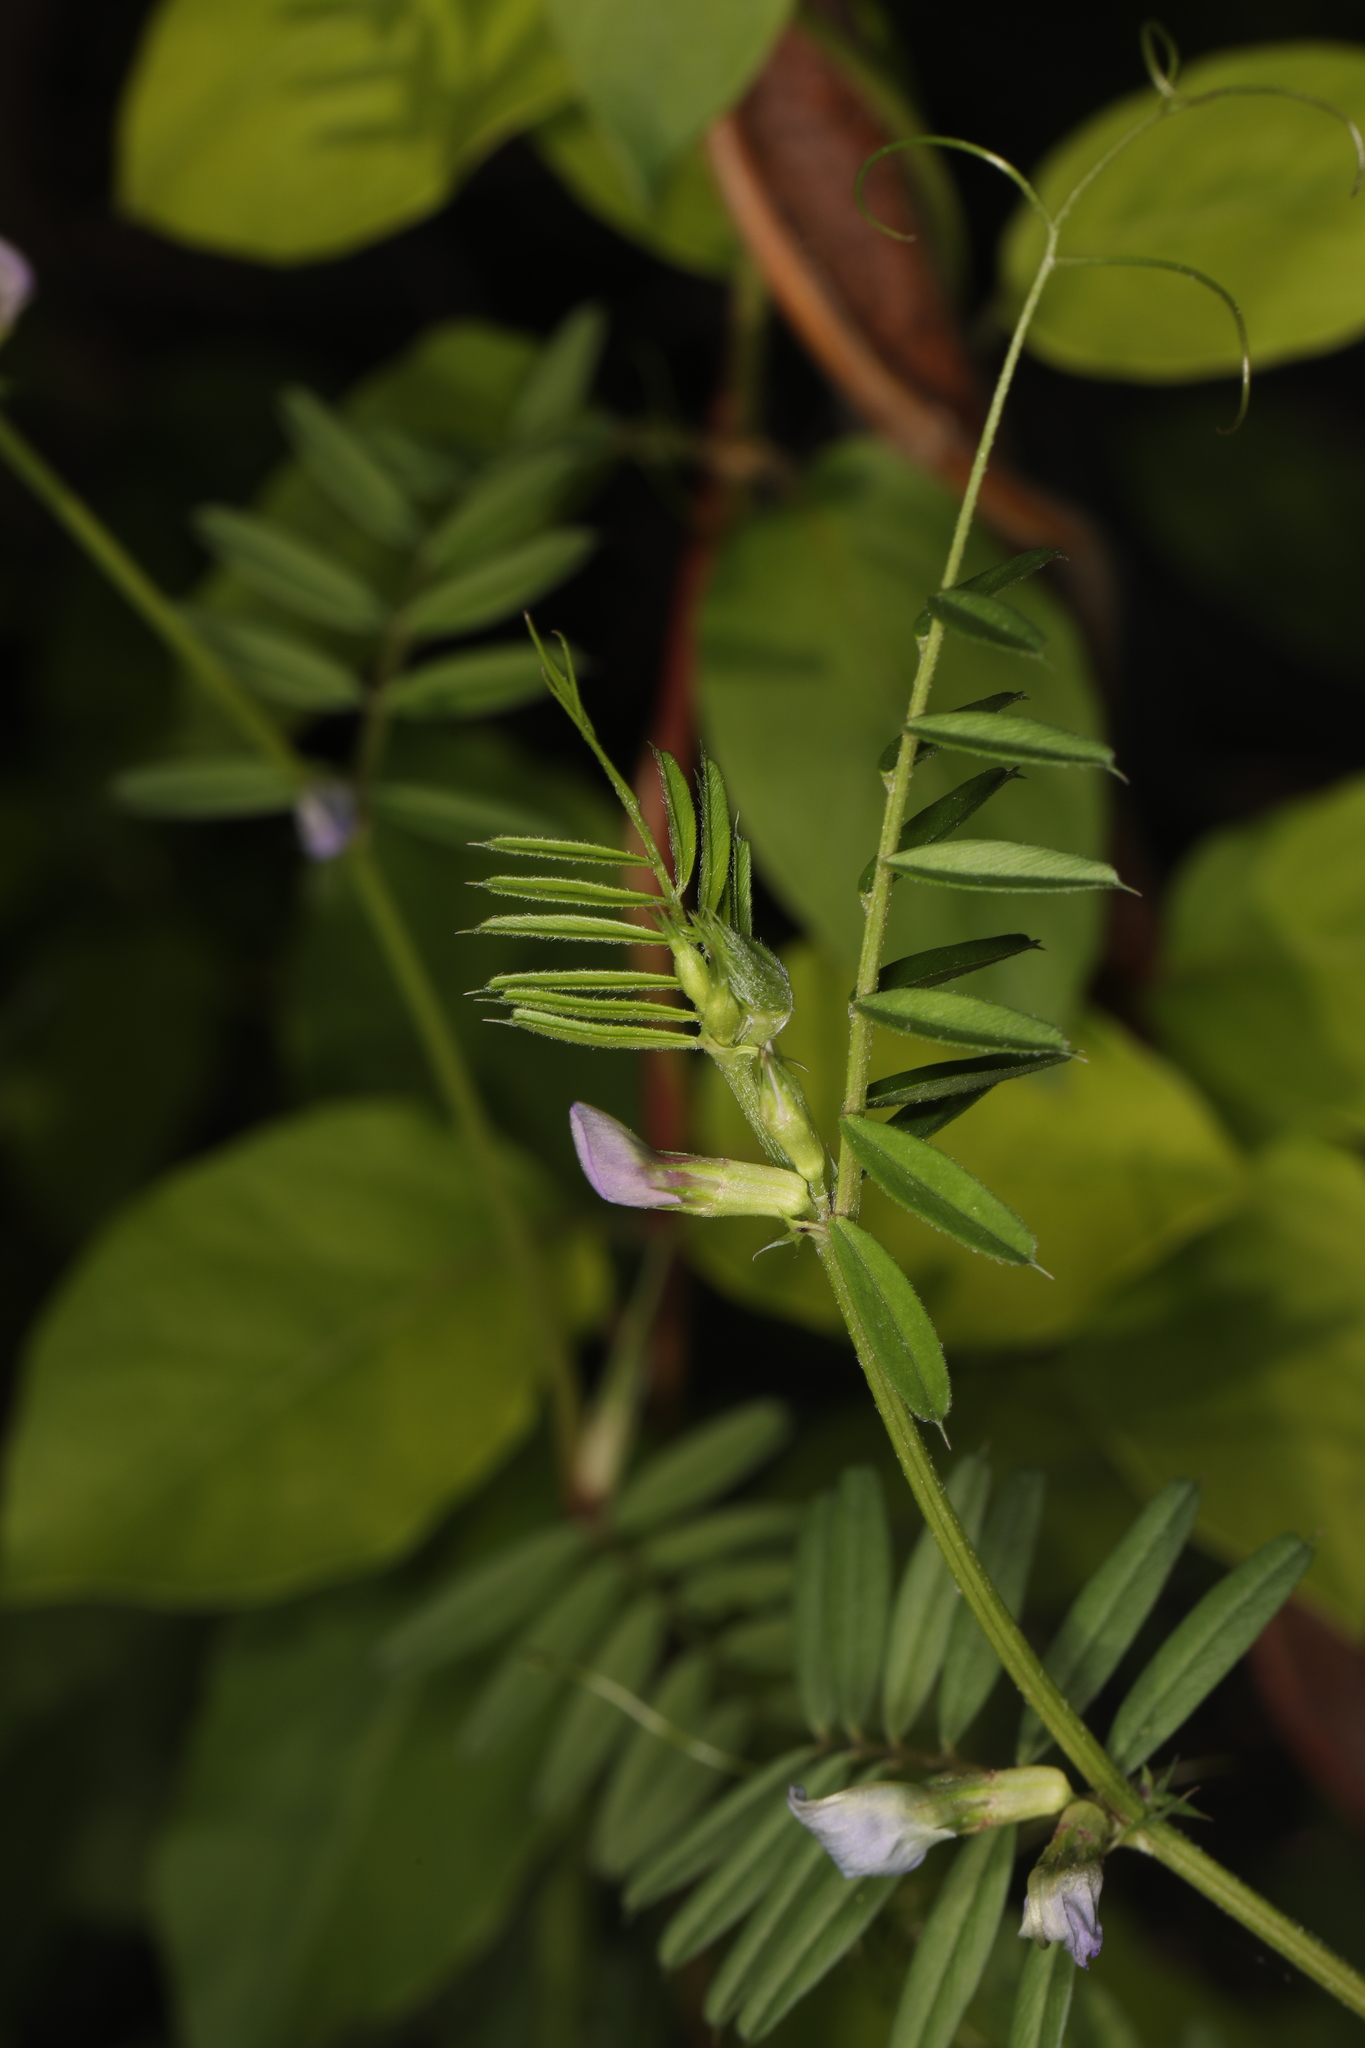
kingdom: Plantae
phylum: Tracheophyta
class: Magnoliopsida
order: Fabales
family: Fabaceae
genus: Vicia
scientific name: Vicia sativa
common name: Garden vetch
